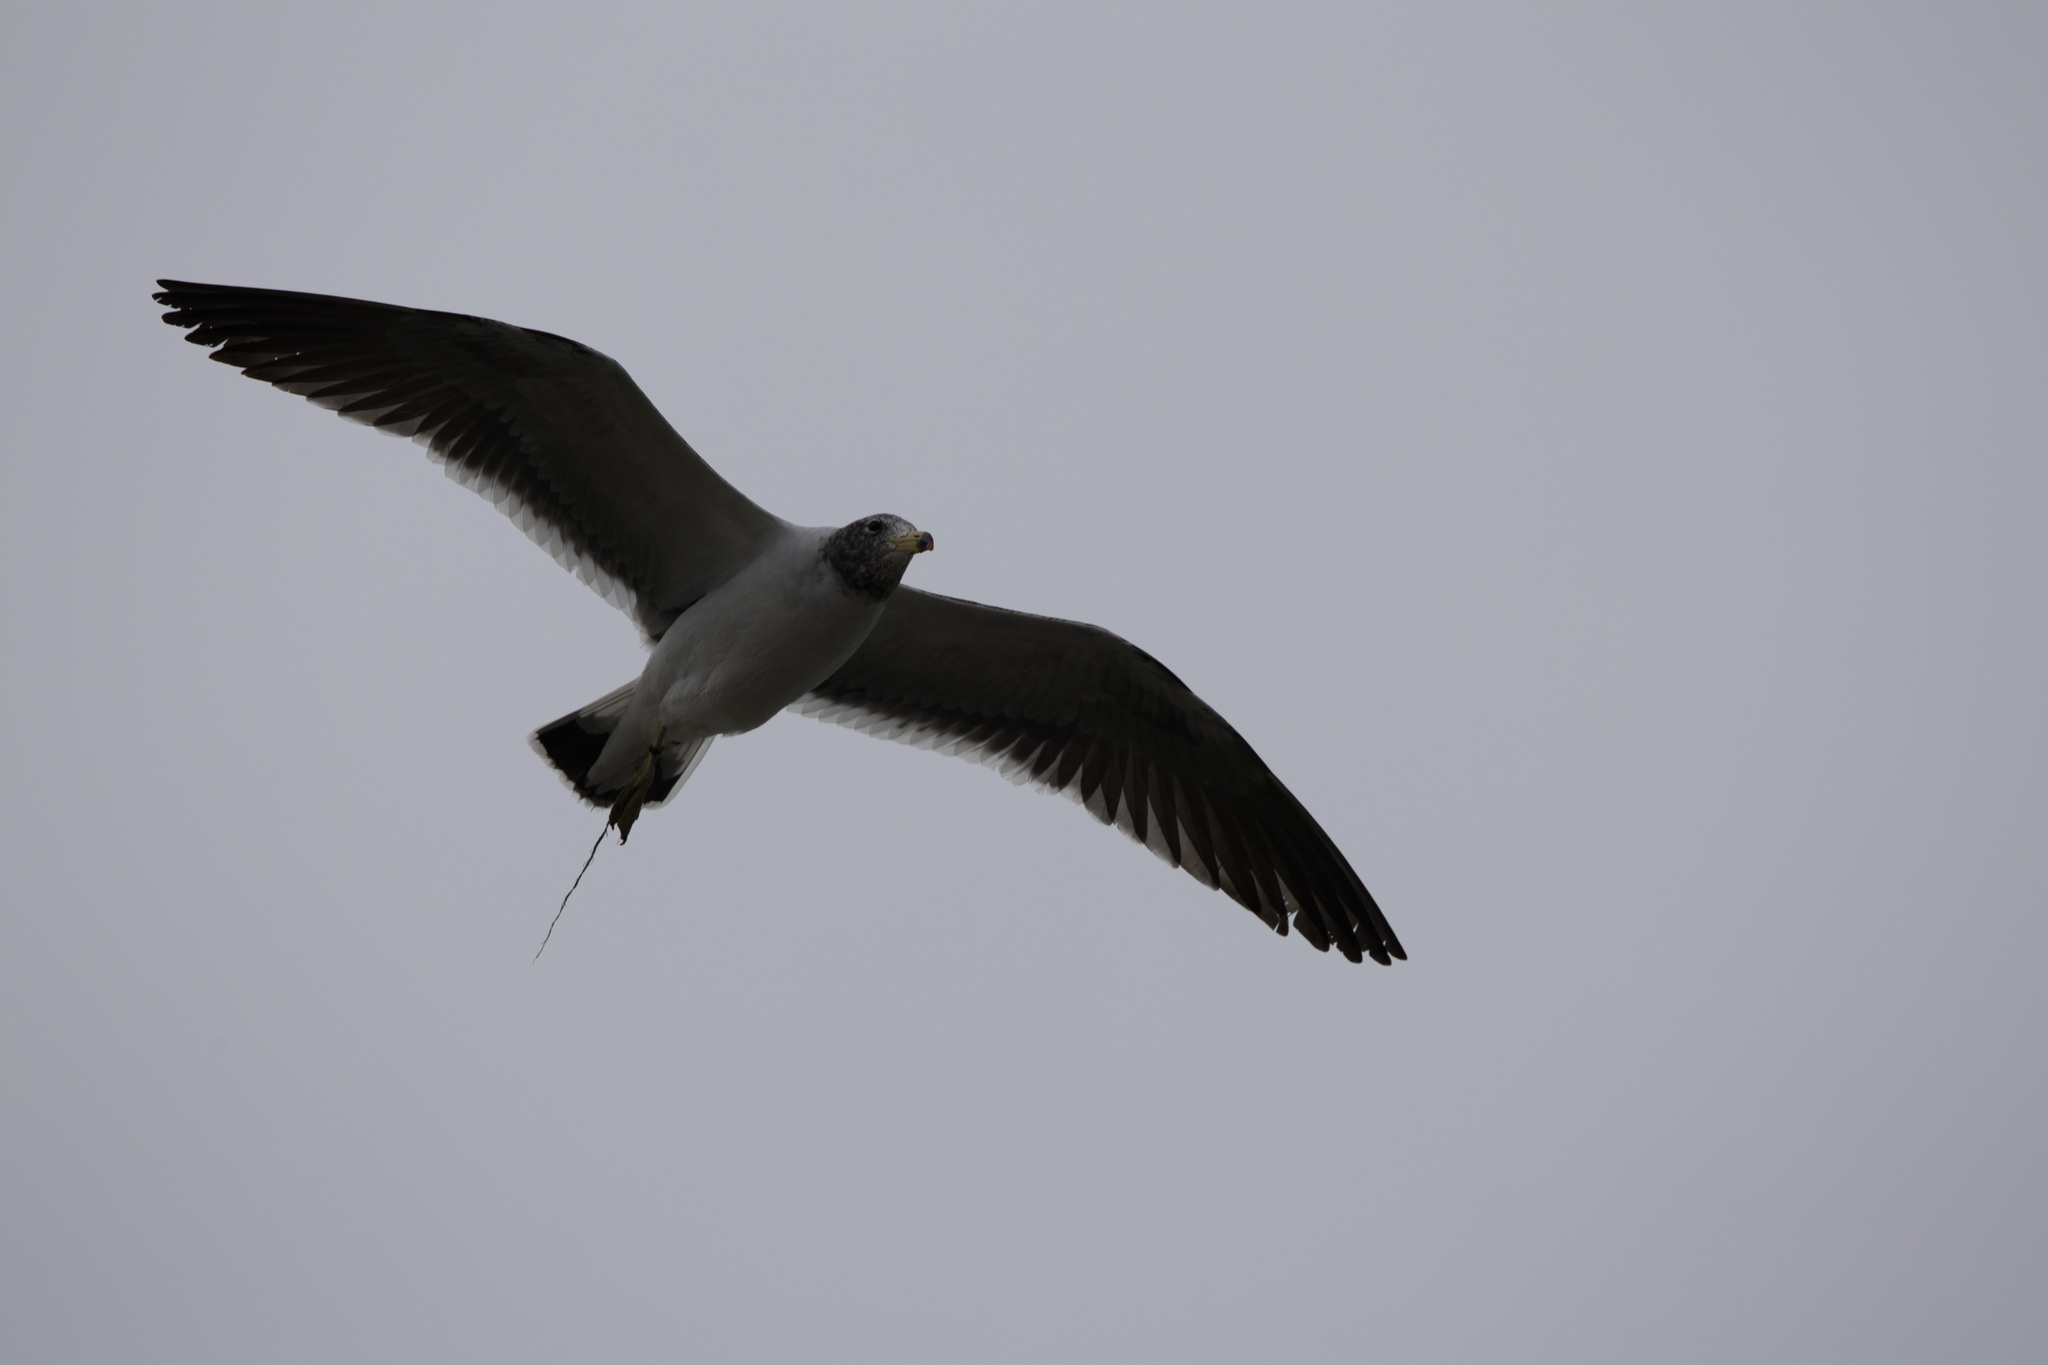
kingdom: Animalia
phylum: Chordata
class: Aves
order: Charadriiformes
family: Laridae
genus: Larus
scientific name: Larus belcheri
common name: Belcher's gull
